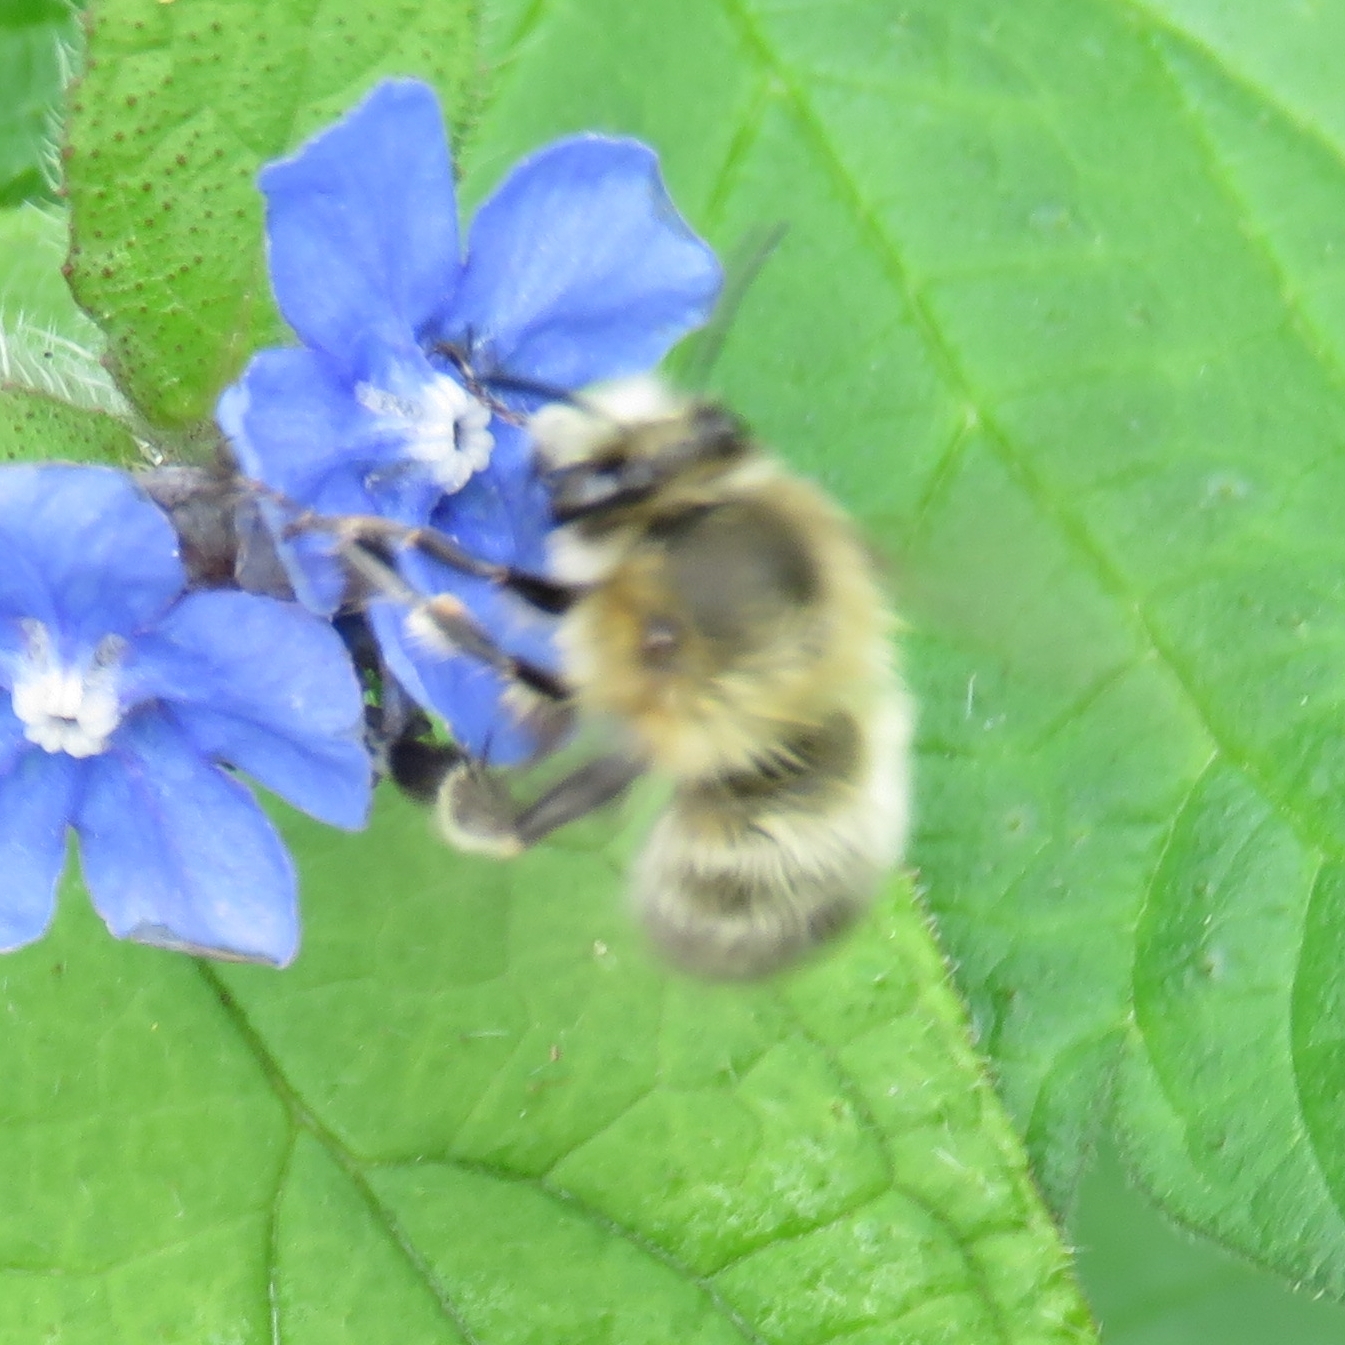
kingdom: Animalia
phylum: Arthropoda
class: Insecta
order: Hymenoptera
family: Apidae
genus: Anthophora
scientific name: Anthophora plumipes
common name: Hairy-footed flower bee
